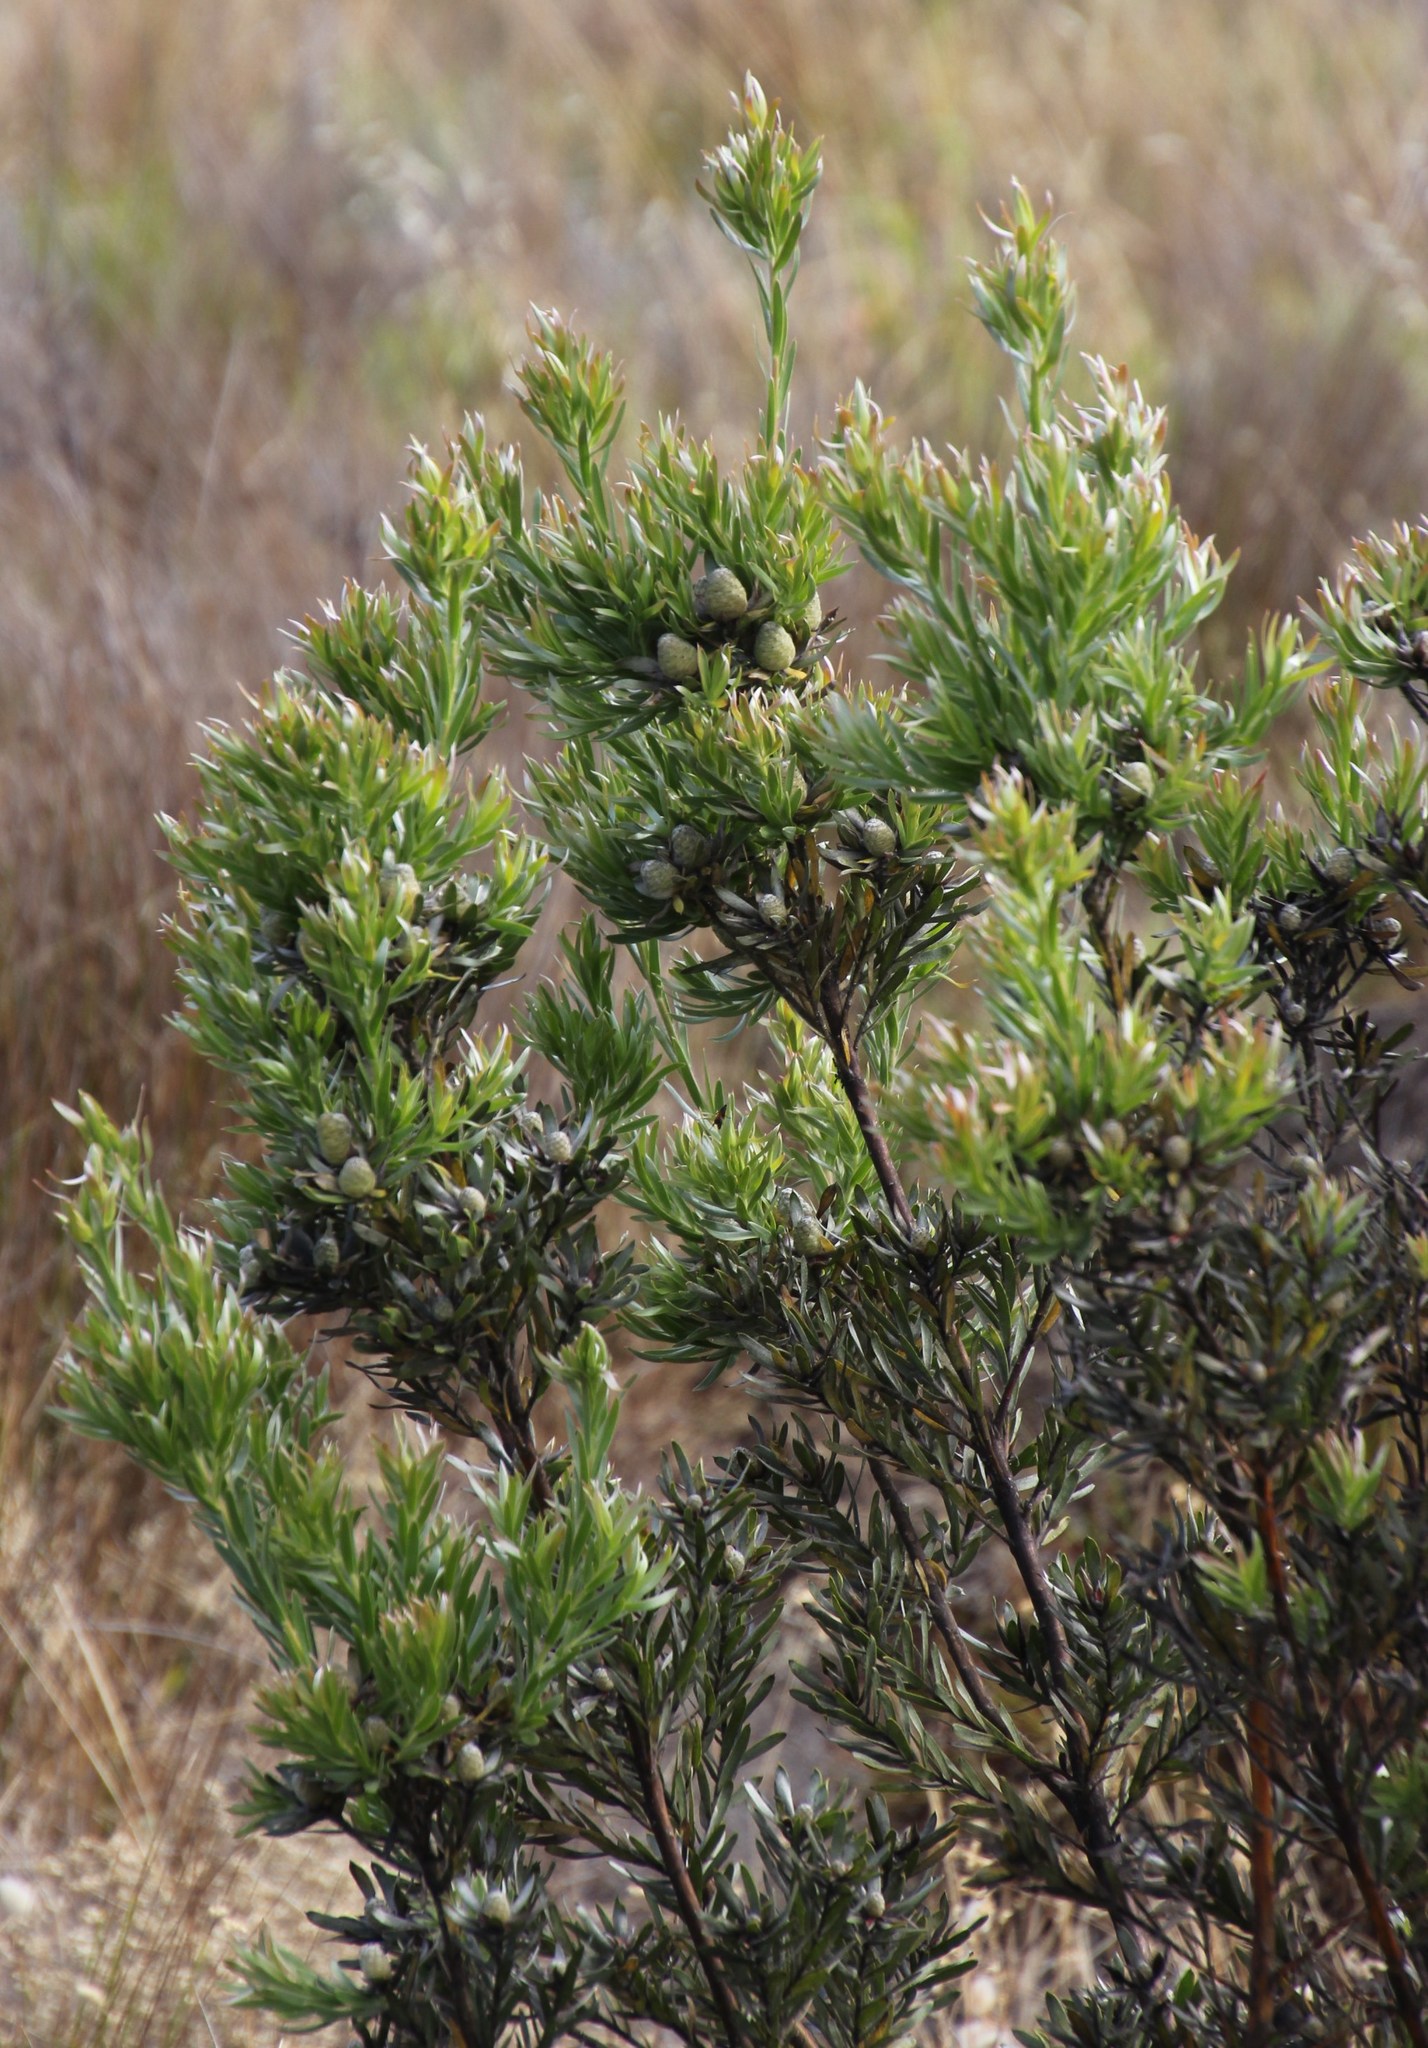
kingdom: Plantae
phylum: Tracheophyta
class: Magnoliopsida
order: Proteales
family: Proteaceae
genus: Leucadendron
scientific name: Leucadendron floridum
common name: Flats conebush
